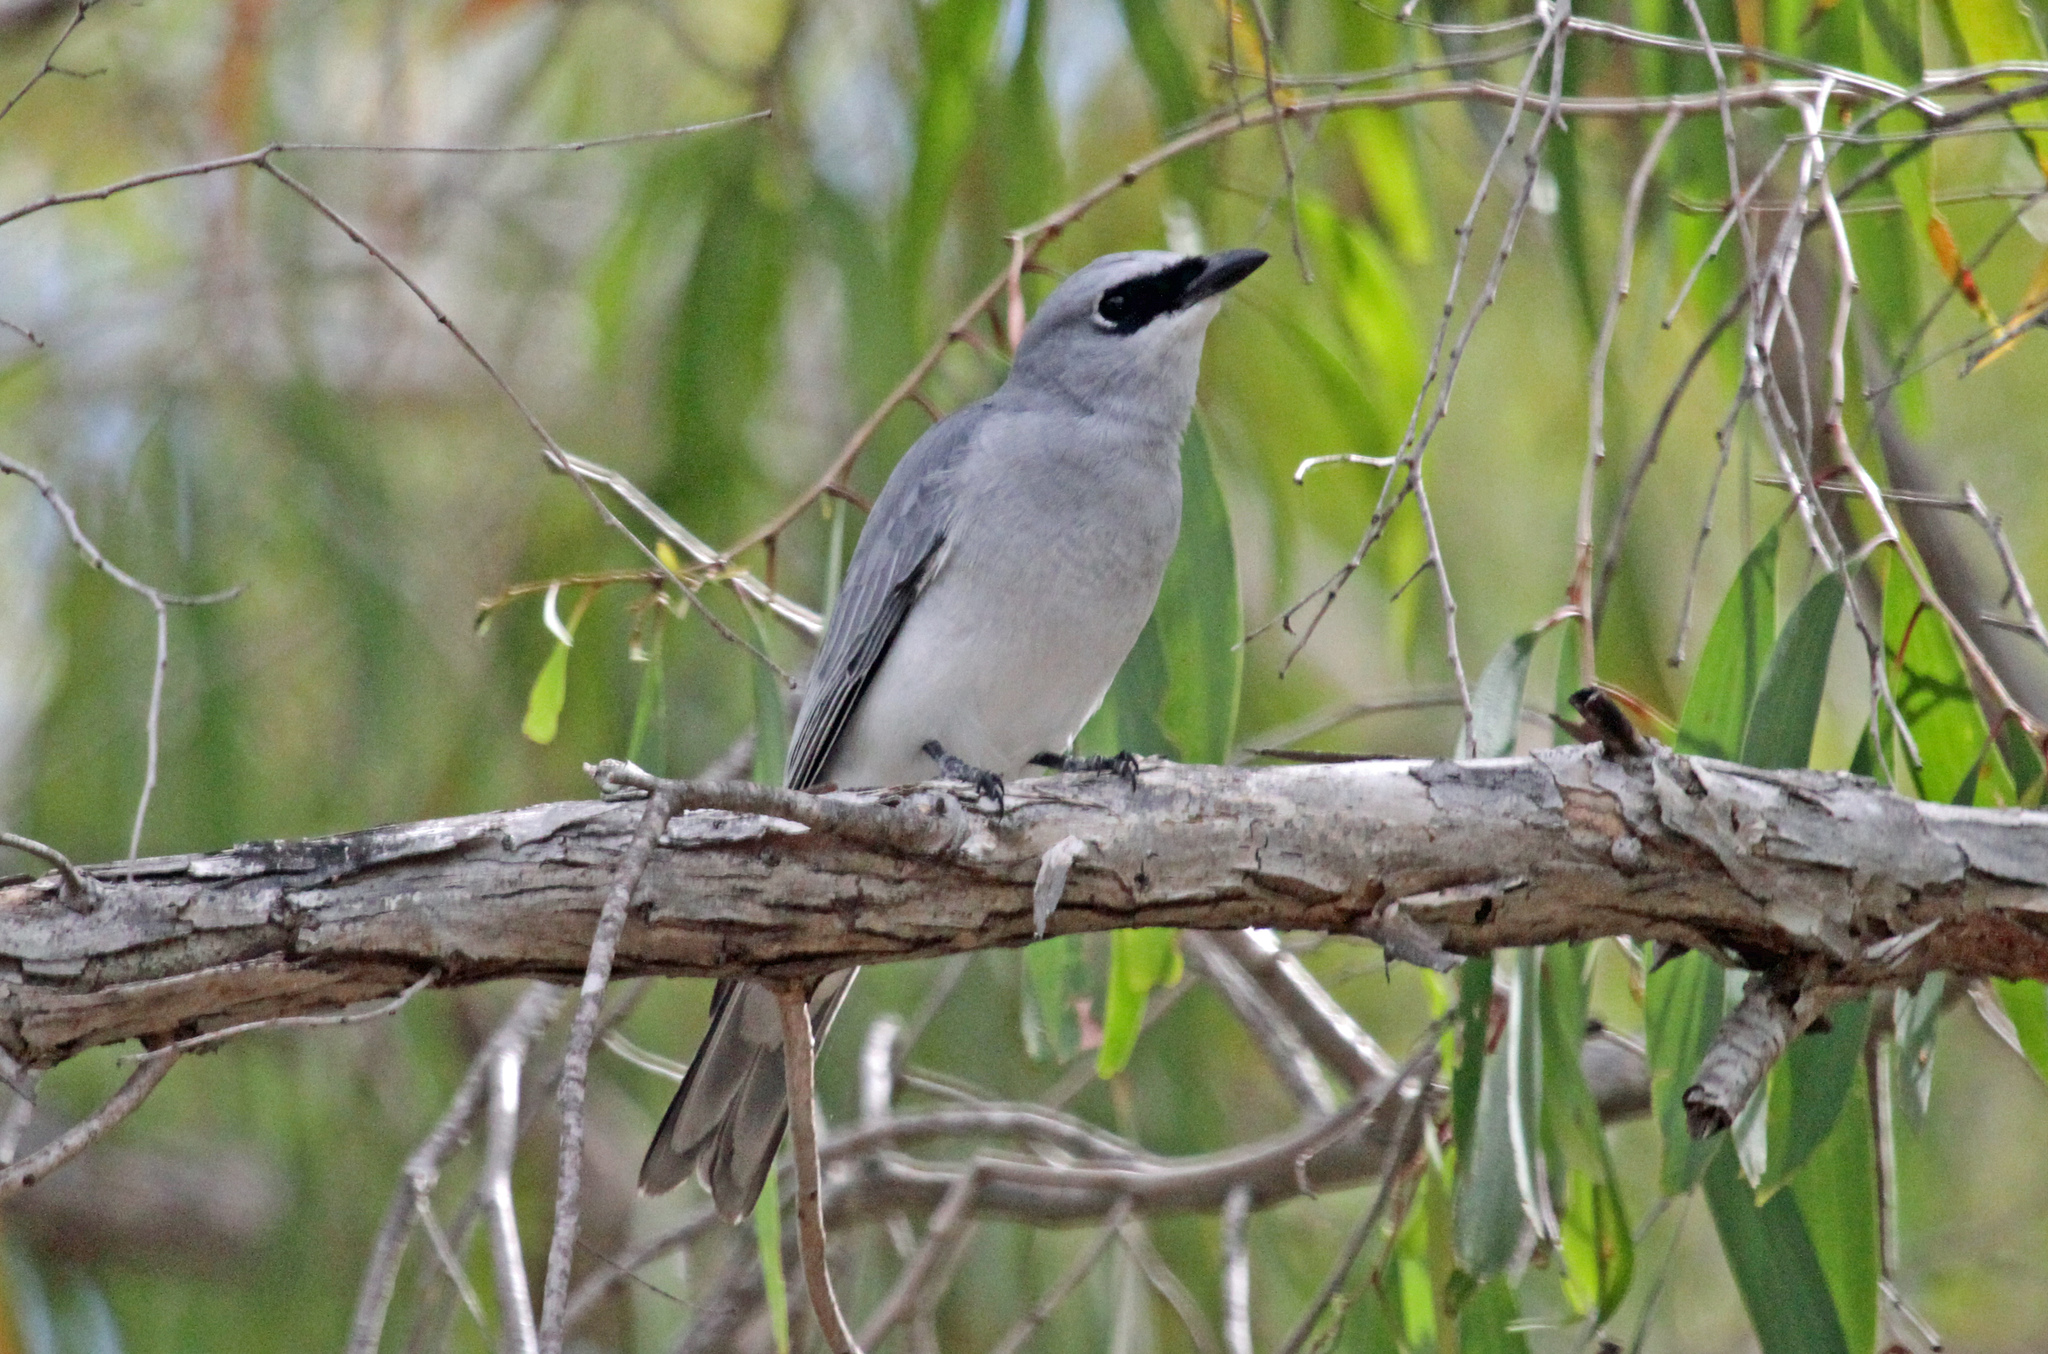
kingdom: Animalia
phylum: Chordata
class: Aves
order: Passeriformes
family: Campephagidae
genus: Coracina
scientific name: Coracina papuensis
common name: White-bellied cuckooshrike
